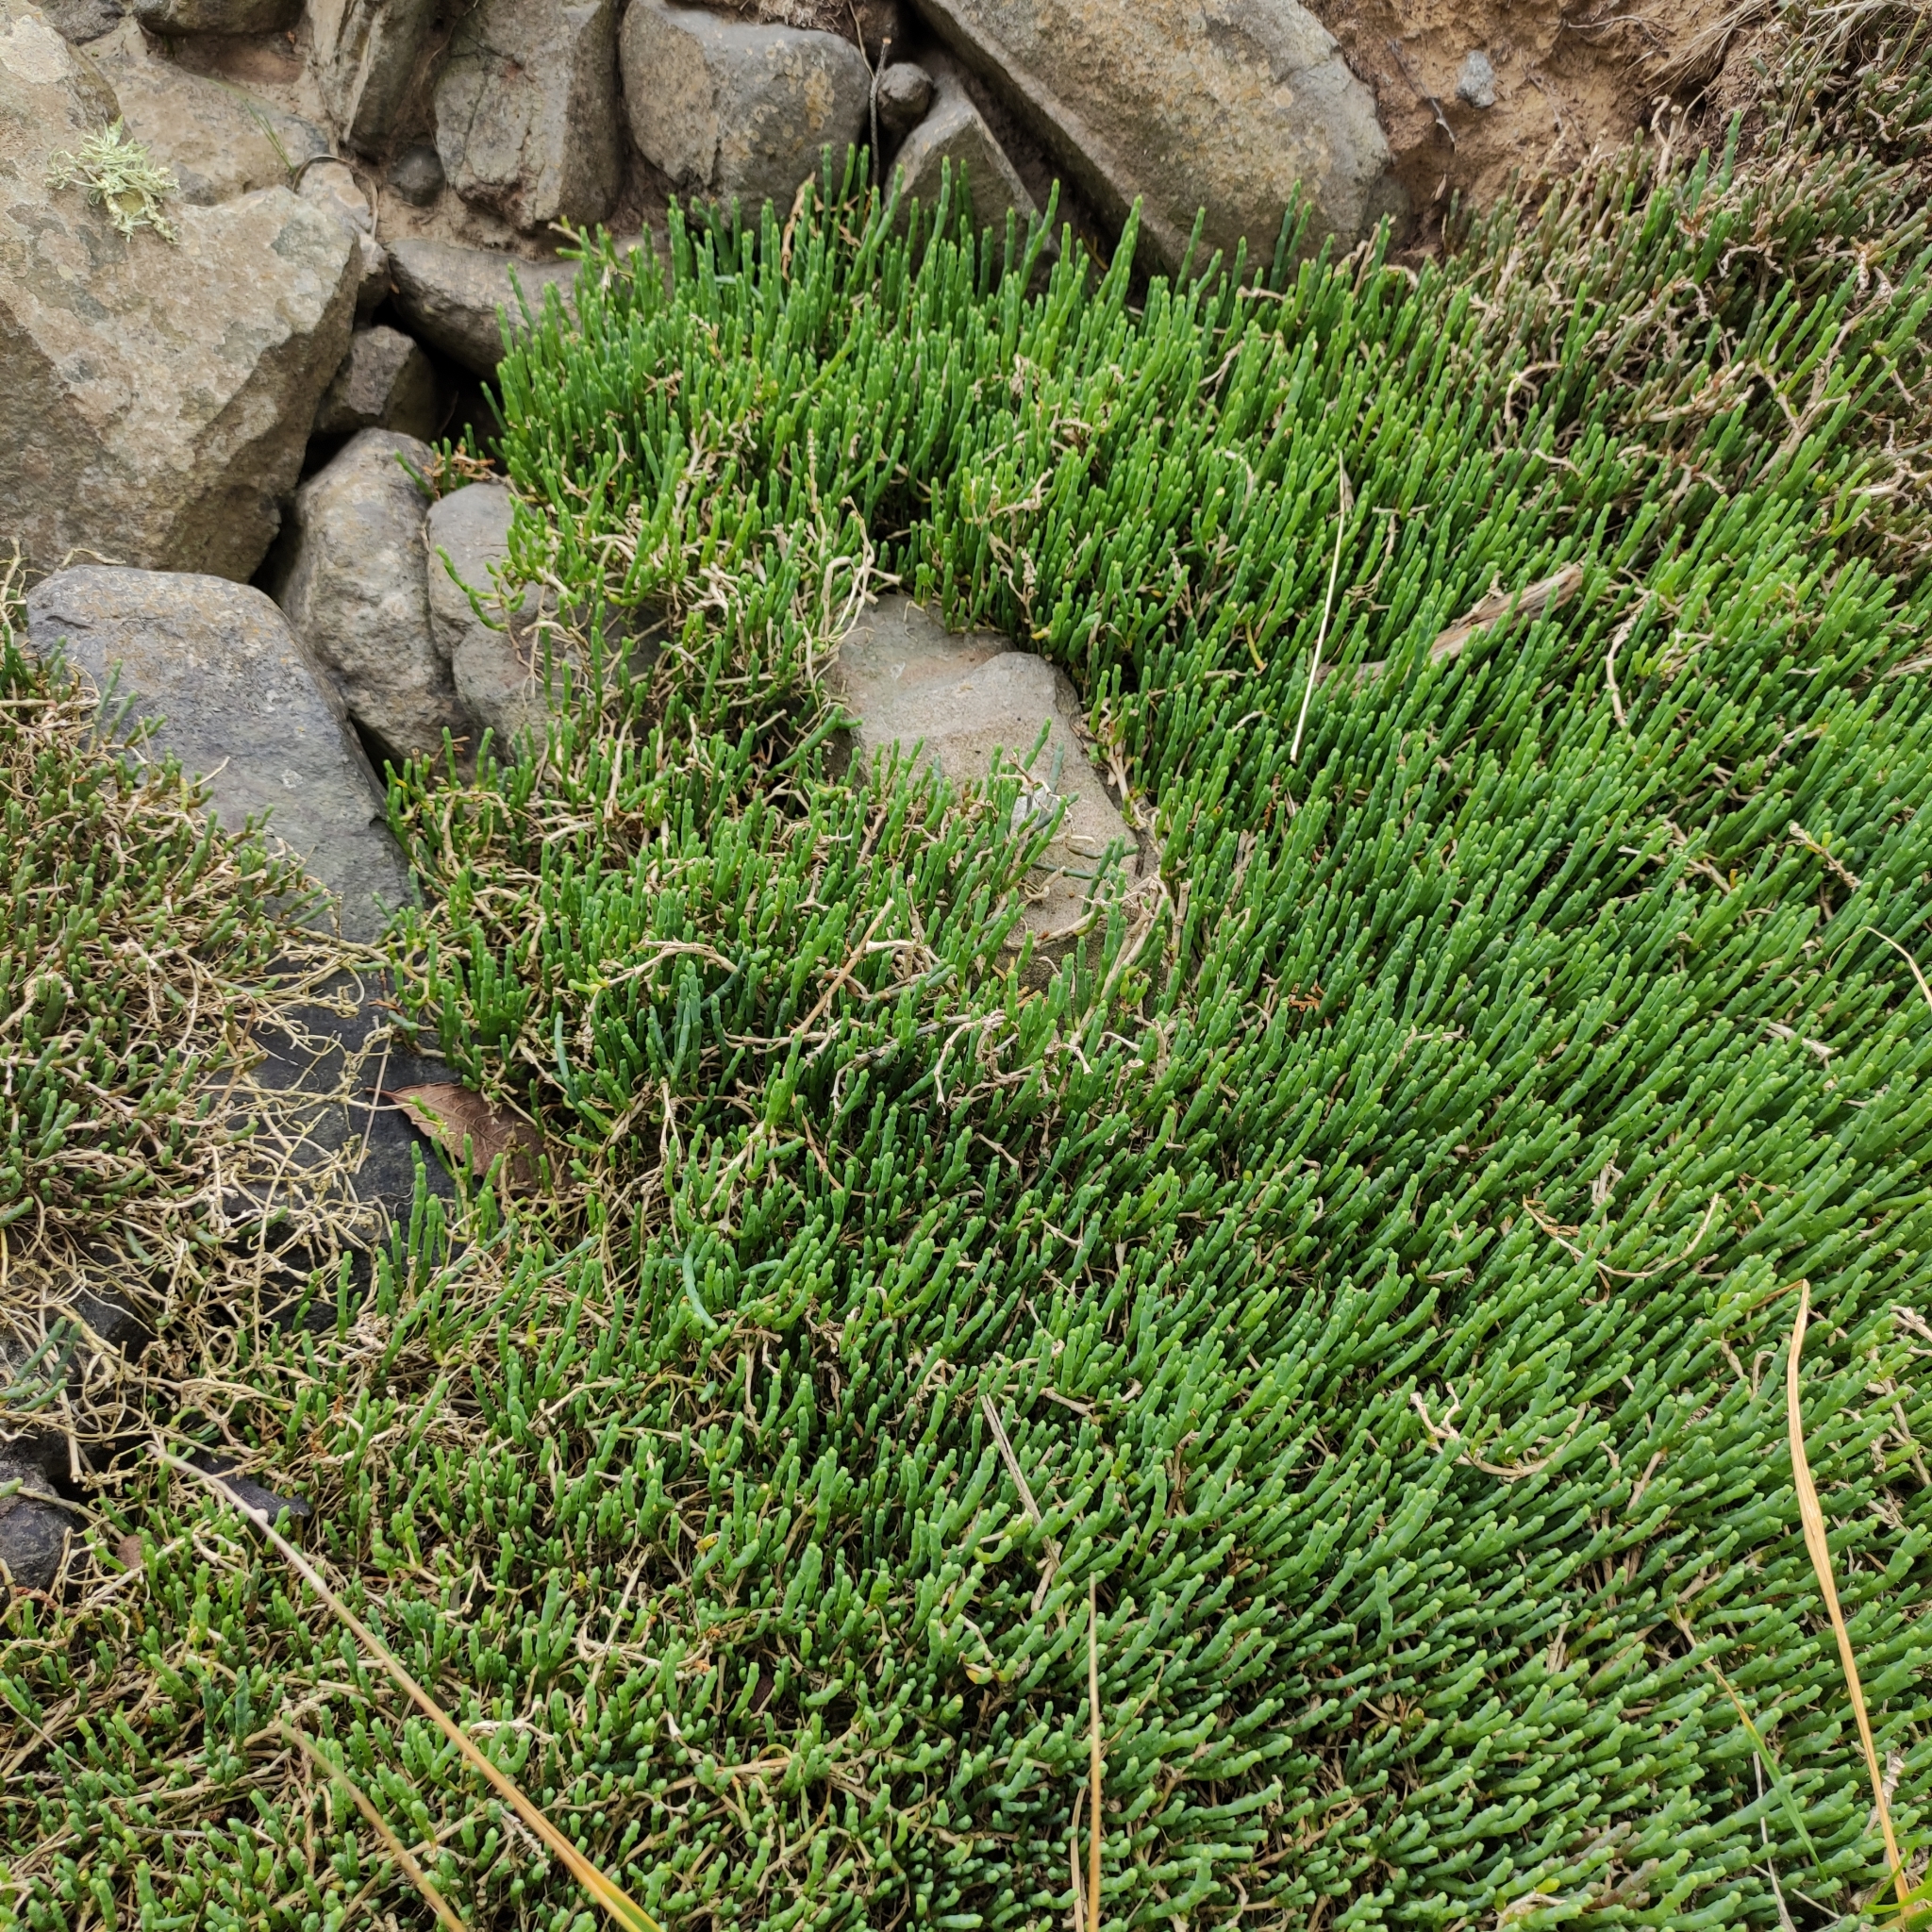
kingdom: Plantae
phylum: Tracheophyta
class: Magnoliopsida
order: Caryophyllales
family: Amaranthaceae
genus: Salicornia
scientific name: Salicornia quinqueflora
